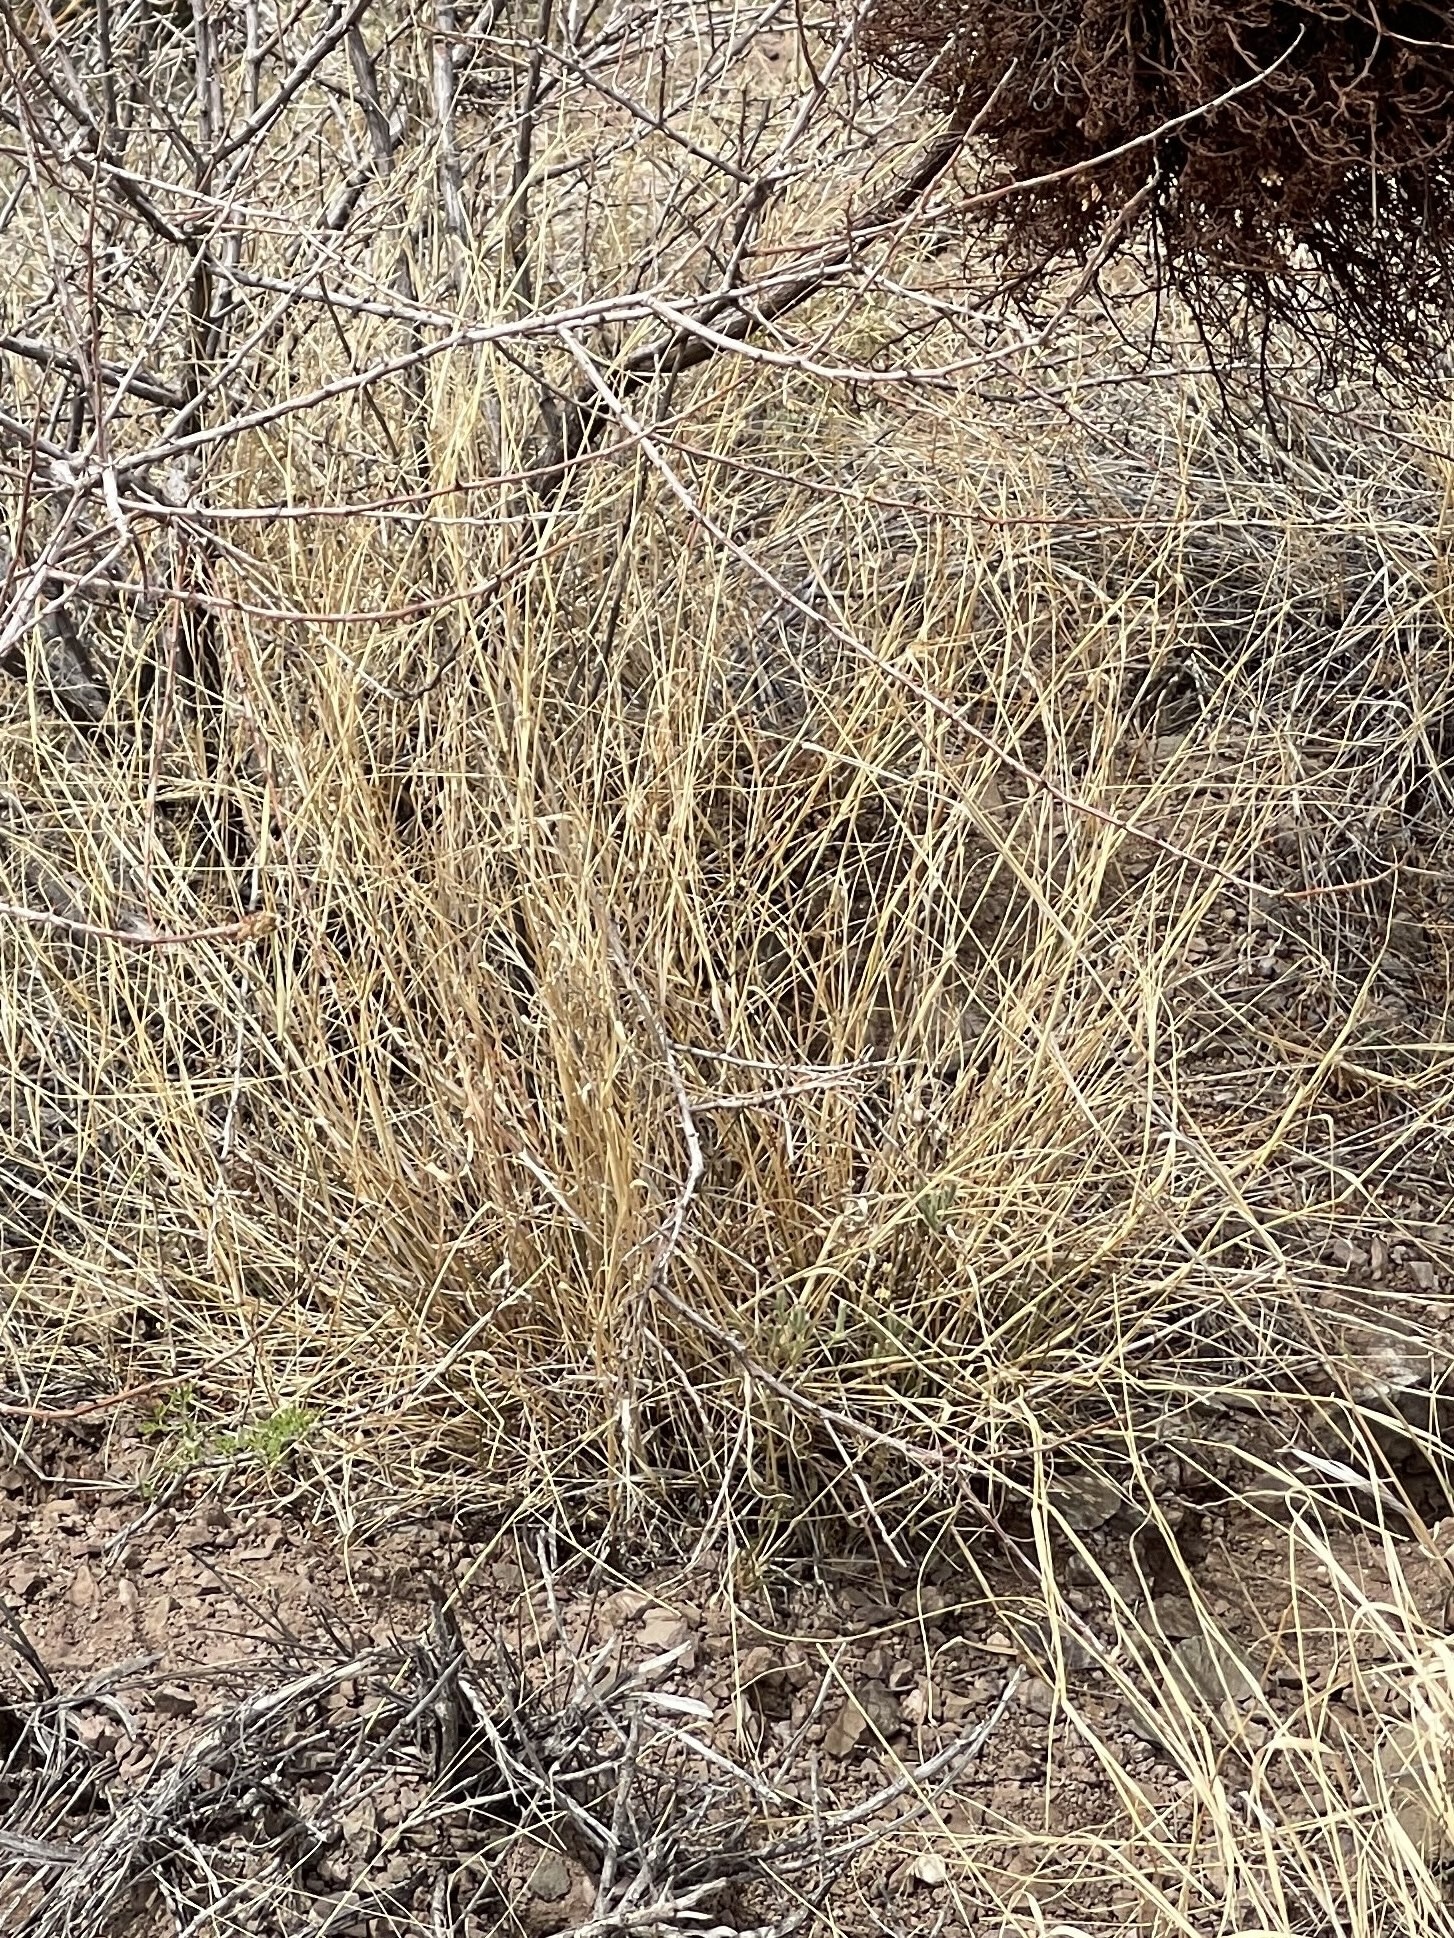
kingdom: Plantae
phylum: Tracheophyta
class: Liliopsida
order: Poales
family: Poaceae
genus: Sporobolus
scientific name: Sporobolus wrightii
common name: Big alkali sacaton
